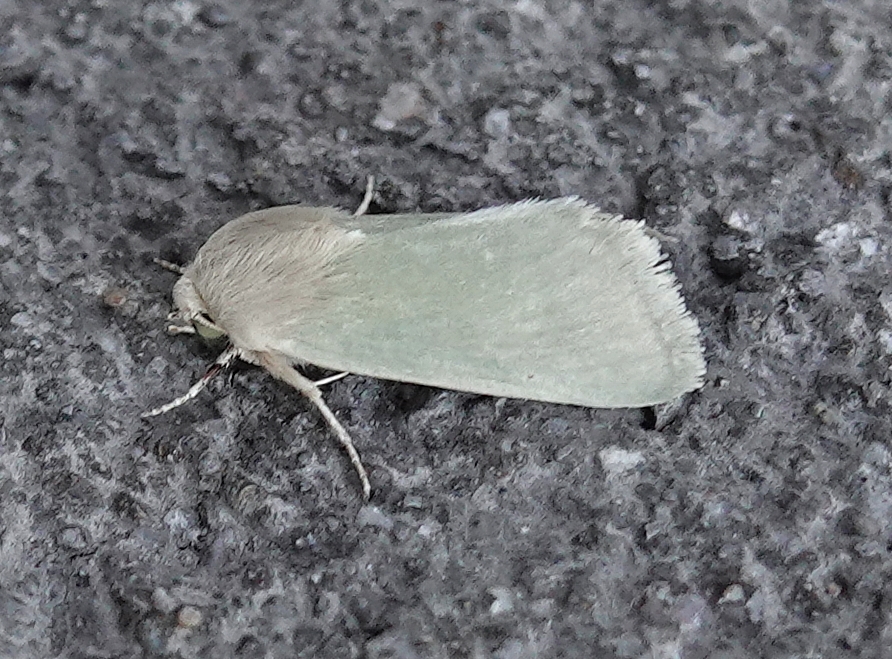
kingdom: Animalia
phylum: Arthropoda
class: Insecta
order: Lepidoptera
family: Noctuidae
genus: Schinia
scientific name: Schinia simplex
